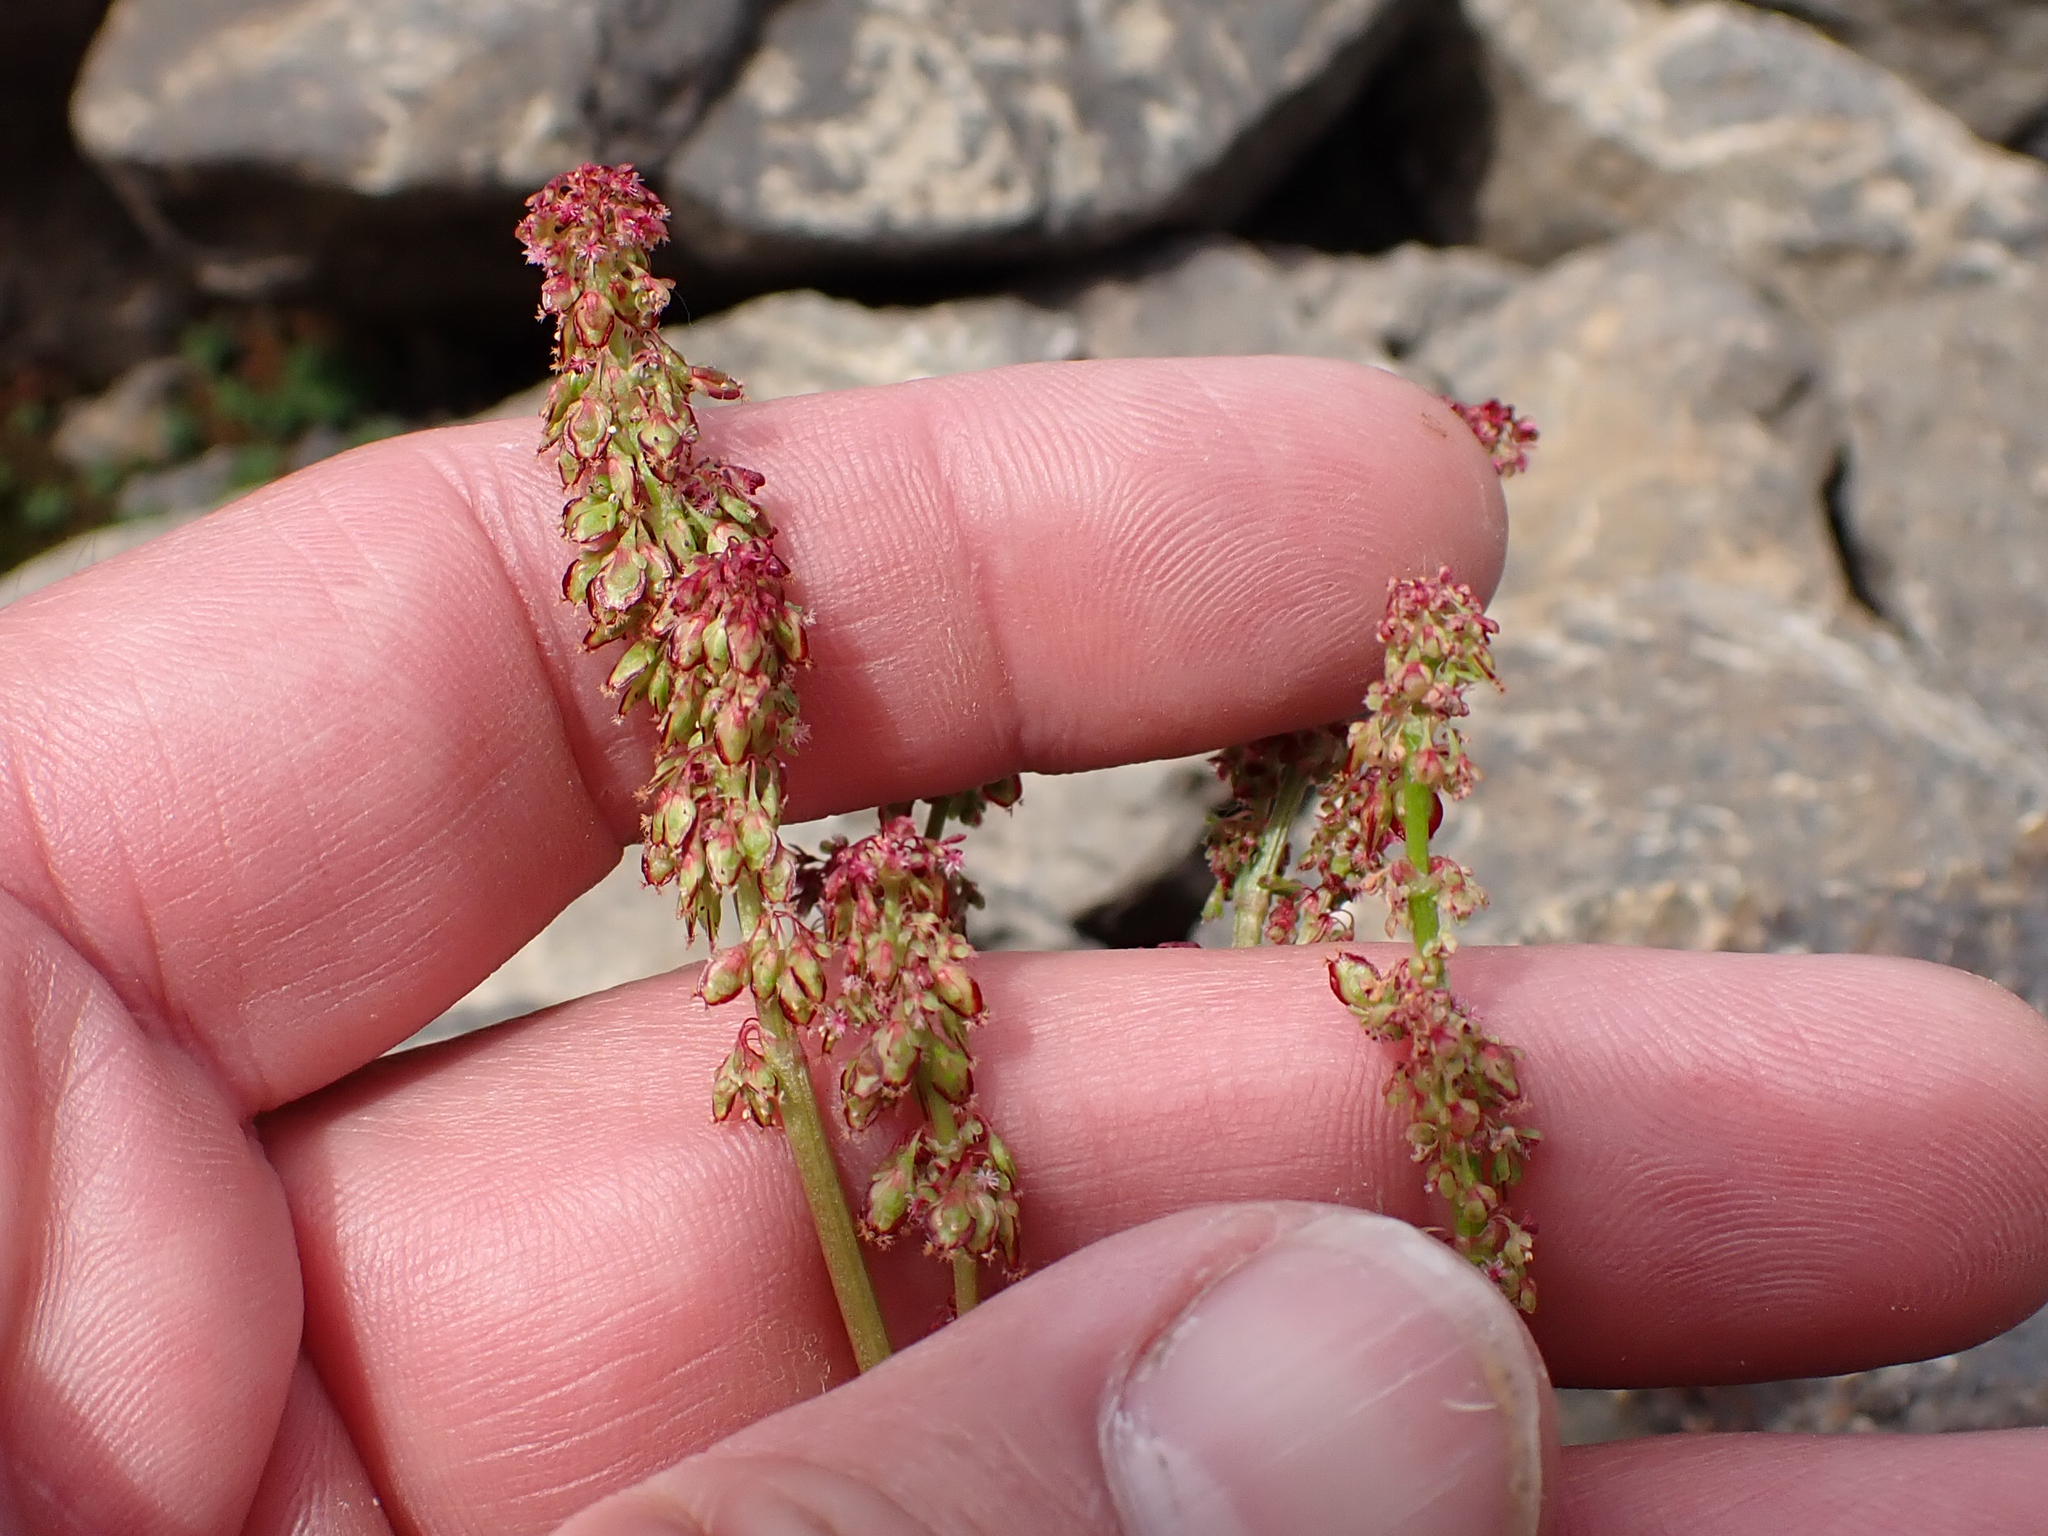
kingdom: Plantae
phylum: Tracheophyta
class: Magnoliopsida
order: Caryophyllales
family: Polygonaceae
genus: Oxyria
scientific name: Oxyria digyna
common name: Alpine mountain-sorrel
